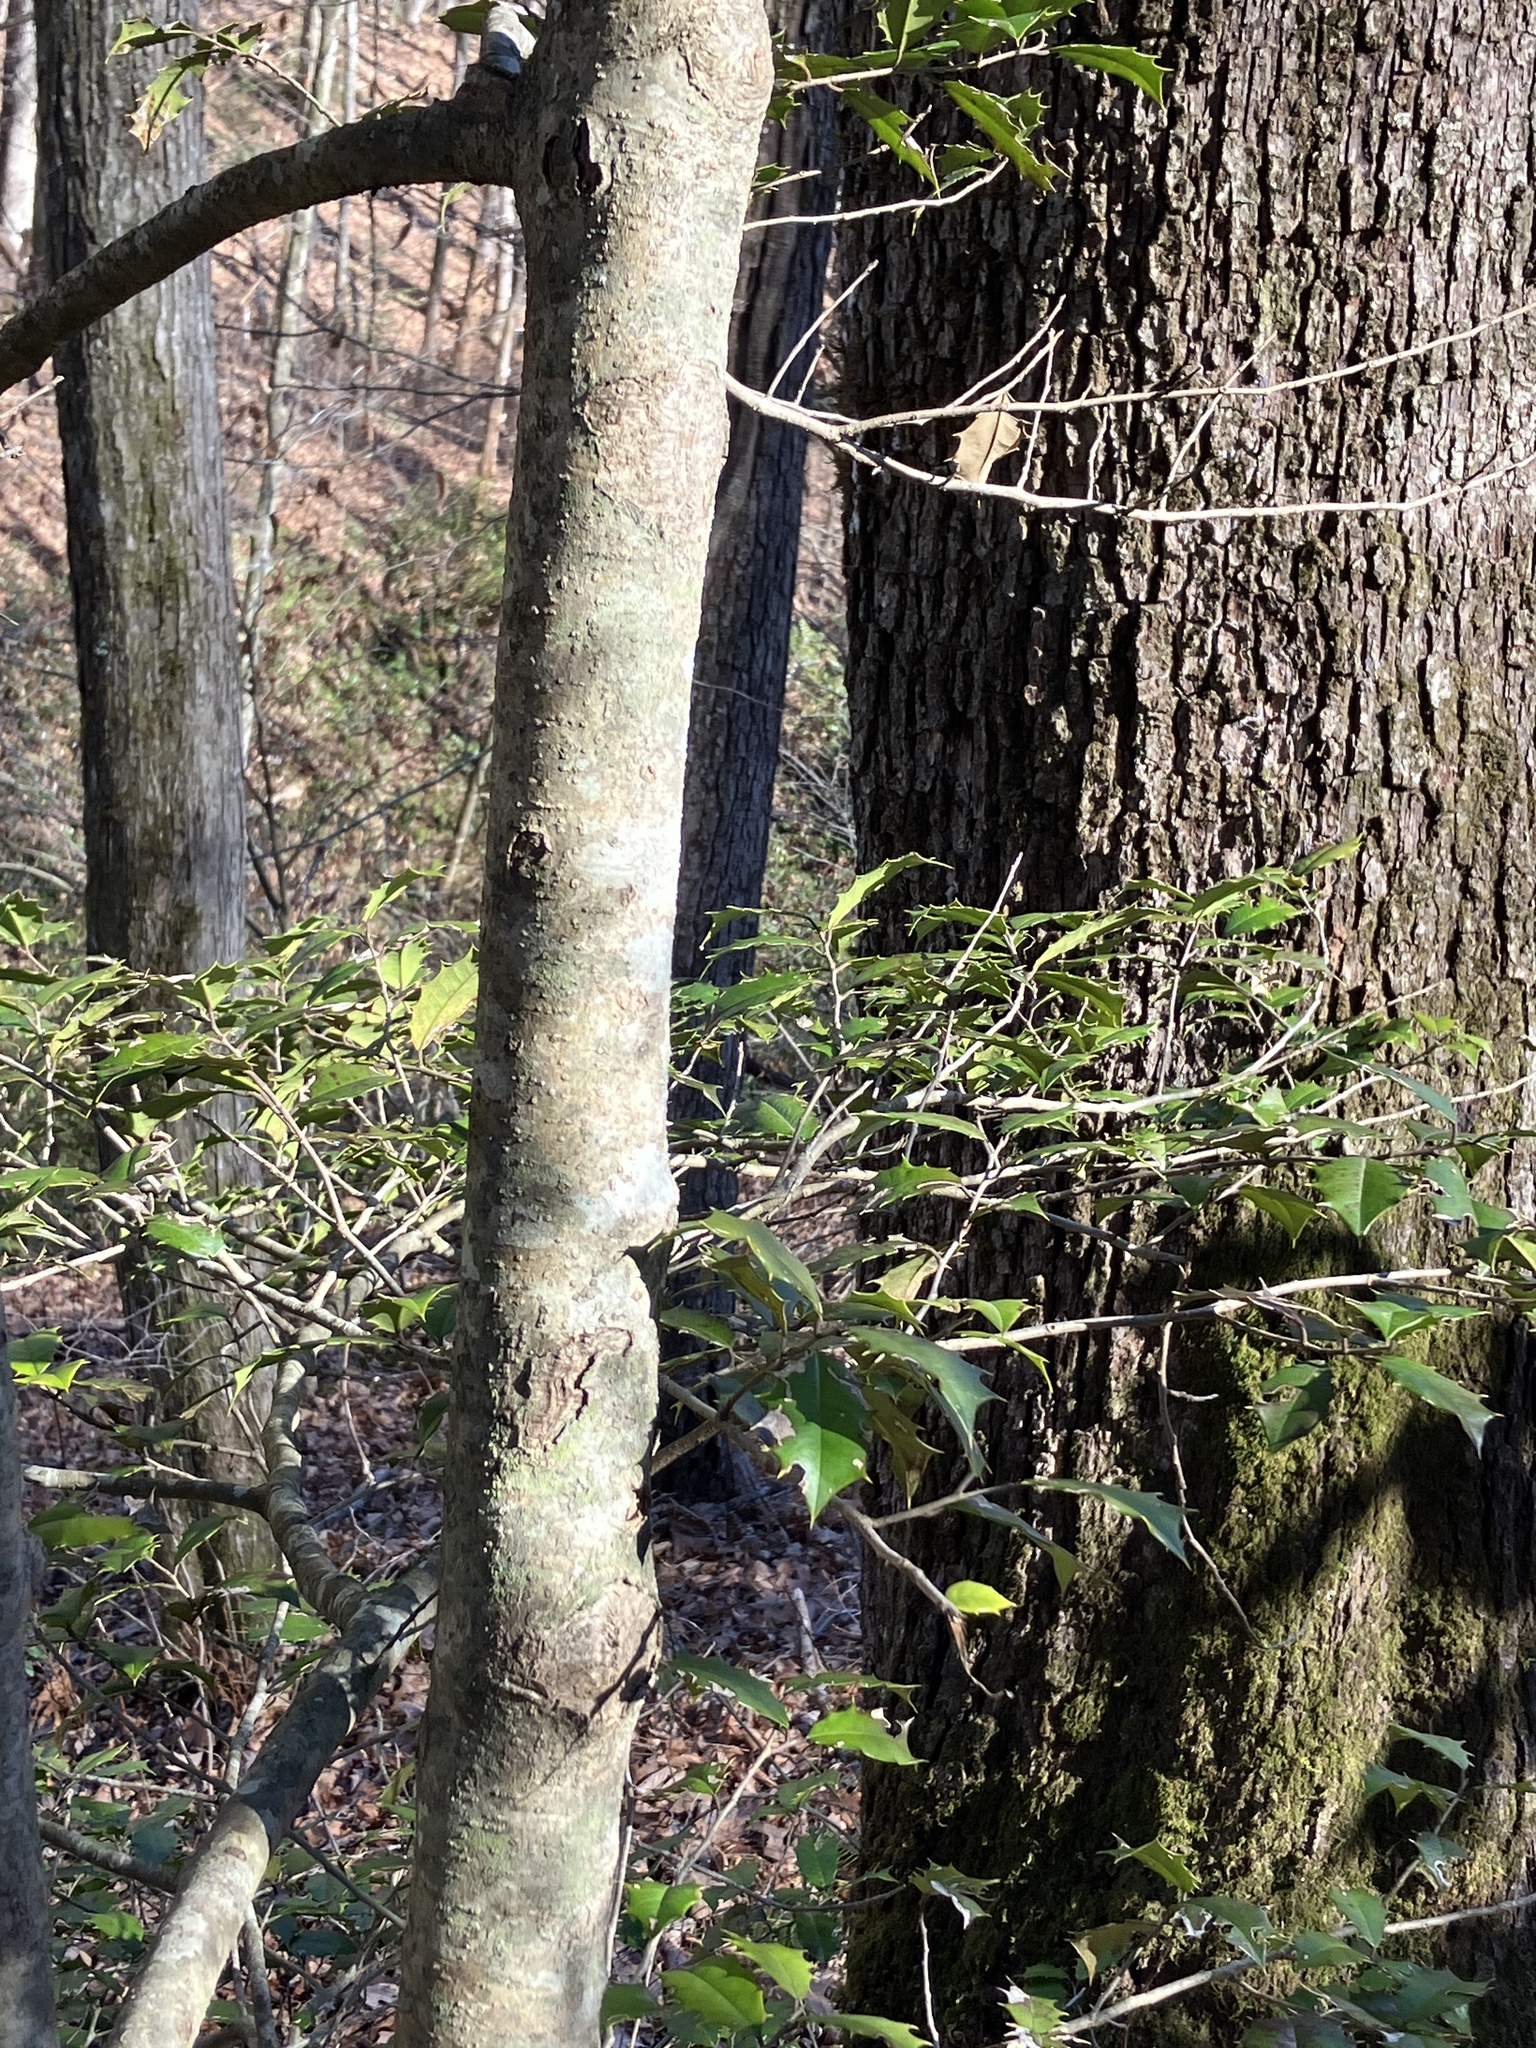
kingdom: Plantae
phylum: Tracheophyta
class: Magnoliopsida
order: Aquifoliales
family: Aquifoliaceae
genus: Ilex
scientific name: Ilex opaca
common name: American holly
